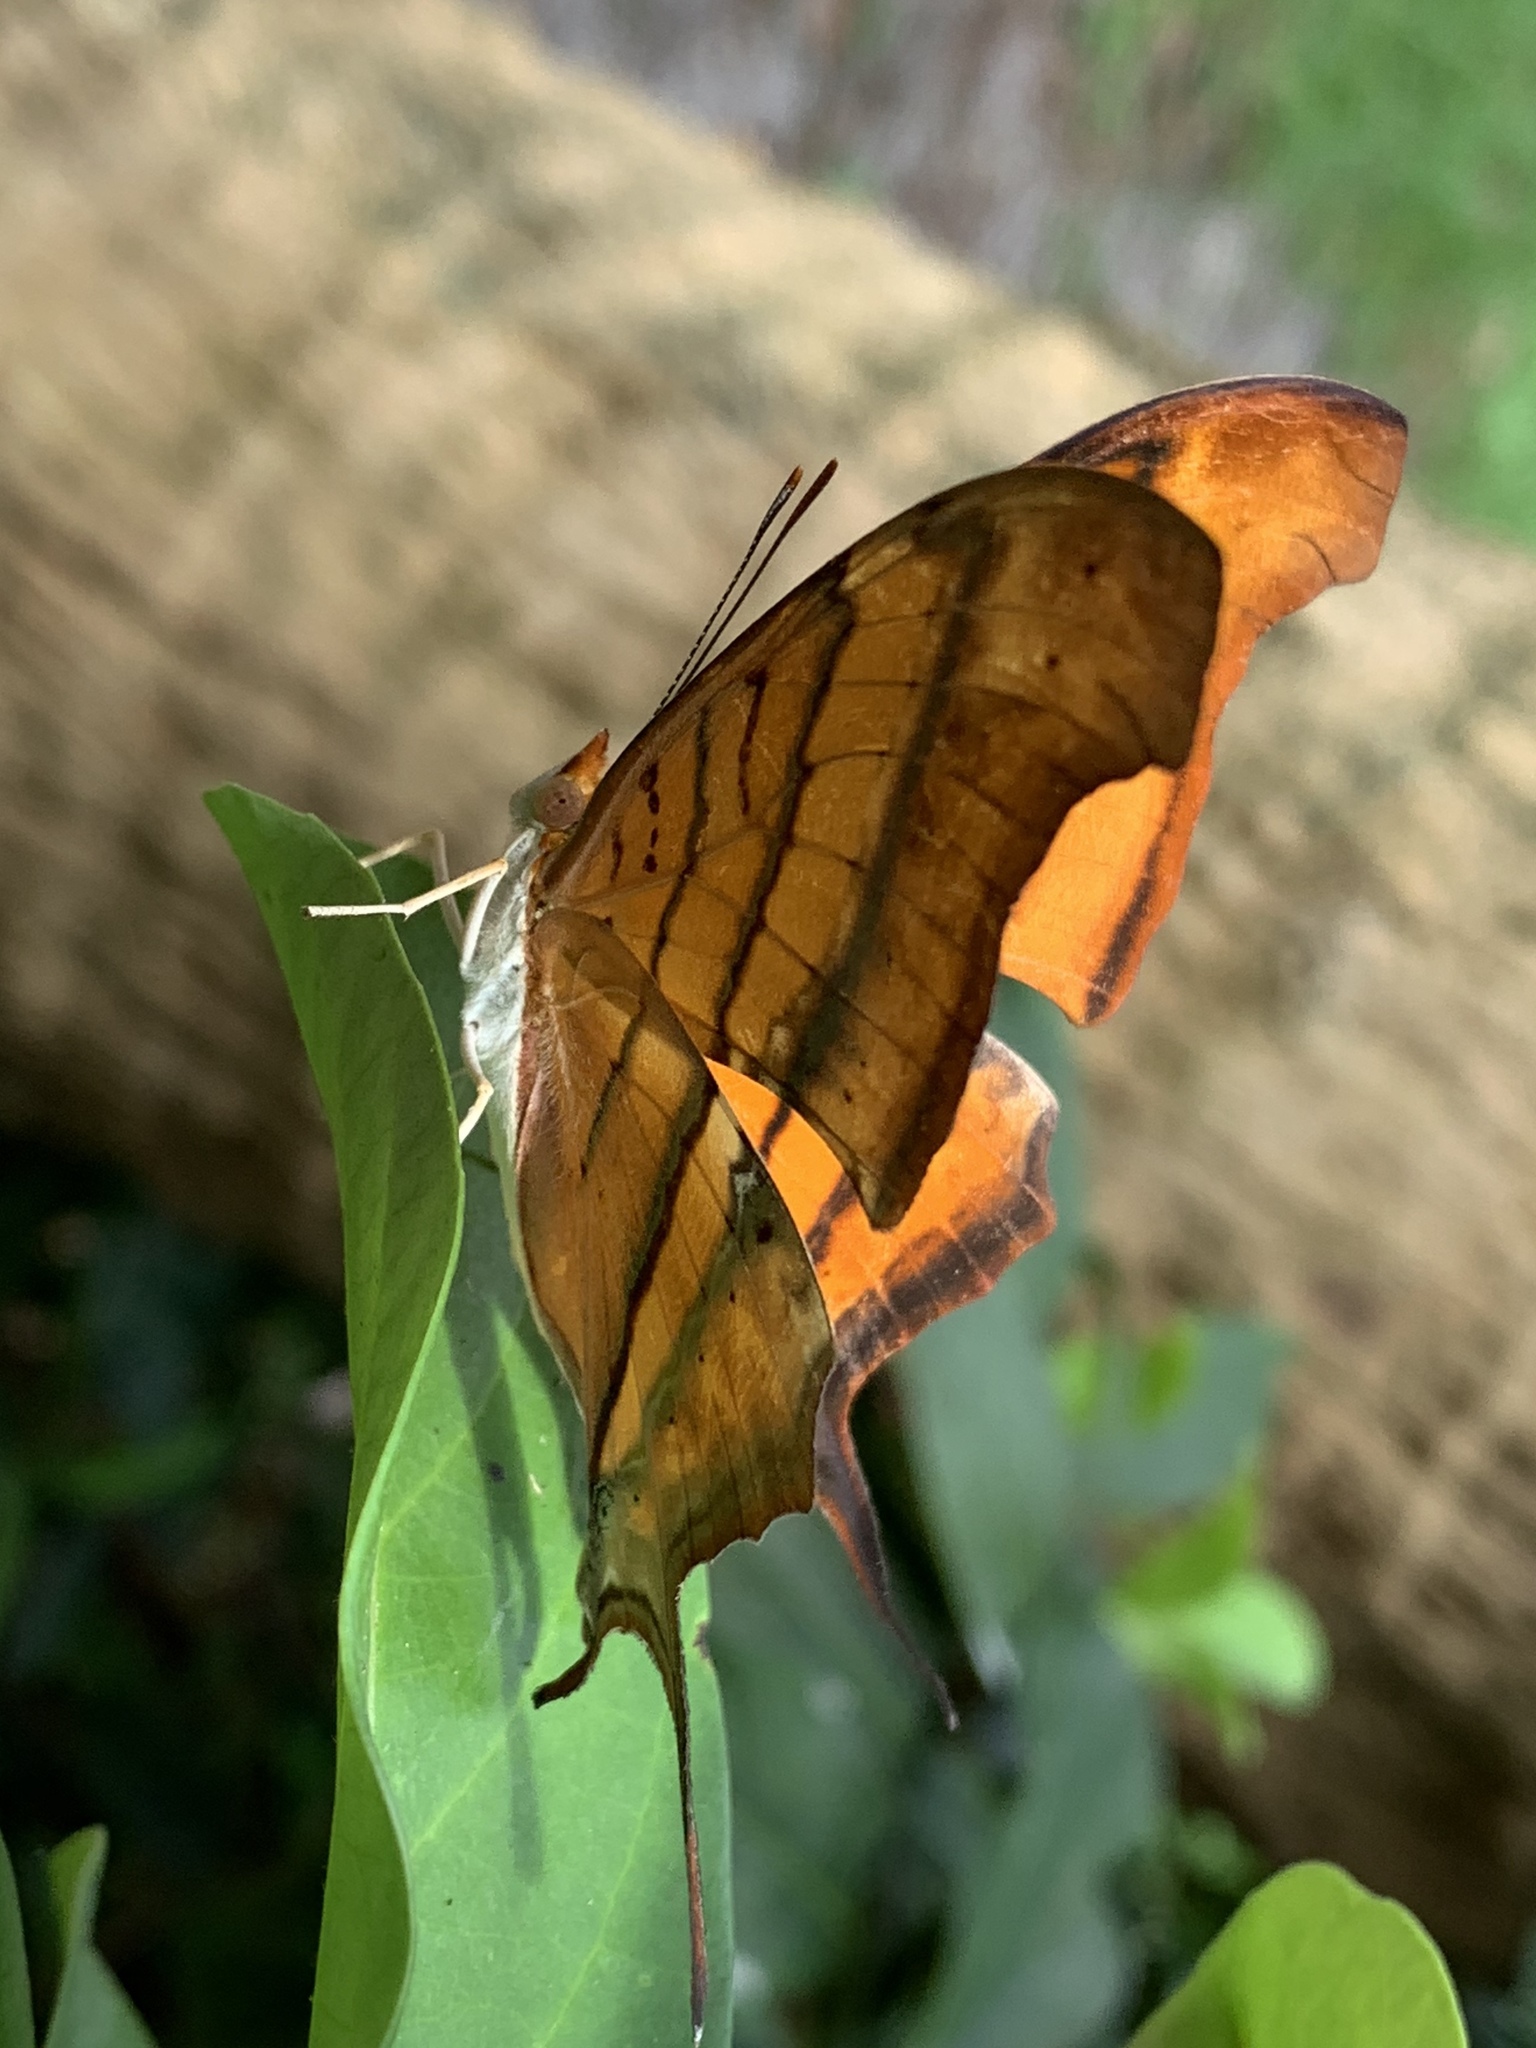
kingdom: Animalia
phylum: Arthropoda
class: Insecta
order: Lepidoptera
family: Nymphalidae
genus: Marpesia
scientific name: Marpesia petreus
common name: Red dagger wing
